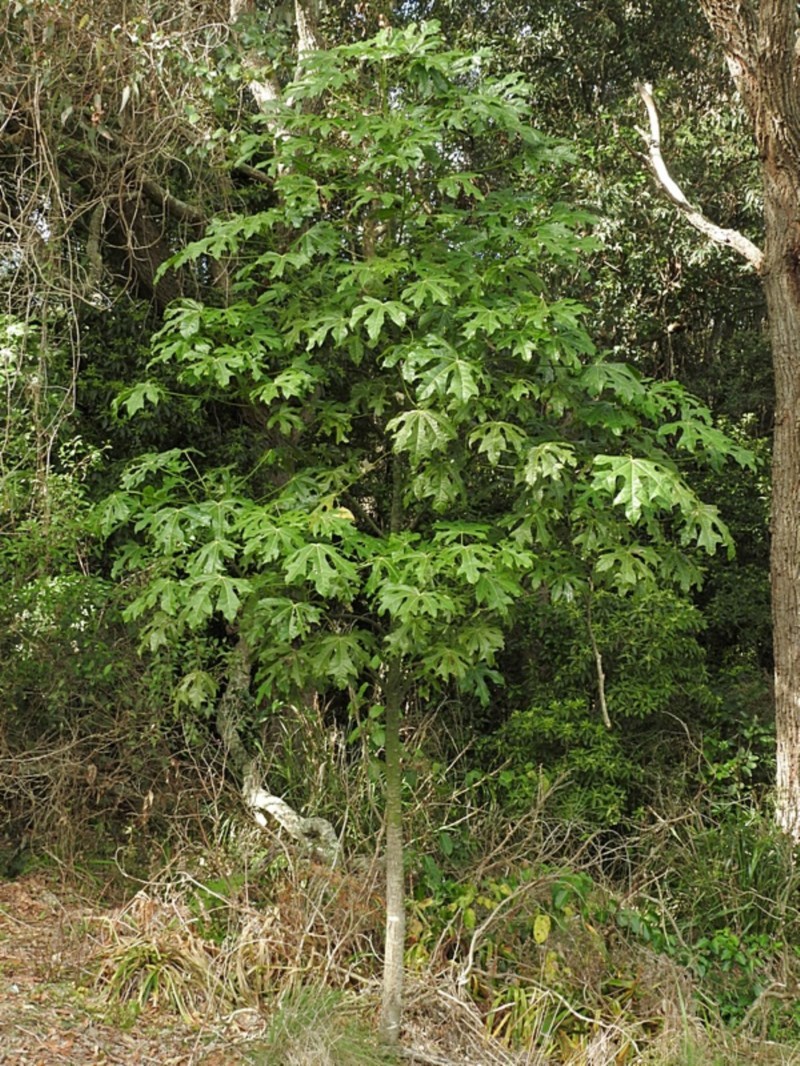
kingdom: Plantae
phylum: Tracheophyta
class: Magnoliopsida
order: Malvales
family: Malvaceae
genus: Brachychiton
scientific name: Brachychiton acerifolius
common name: Illawarra flame tree
